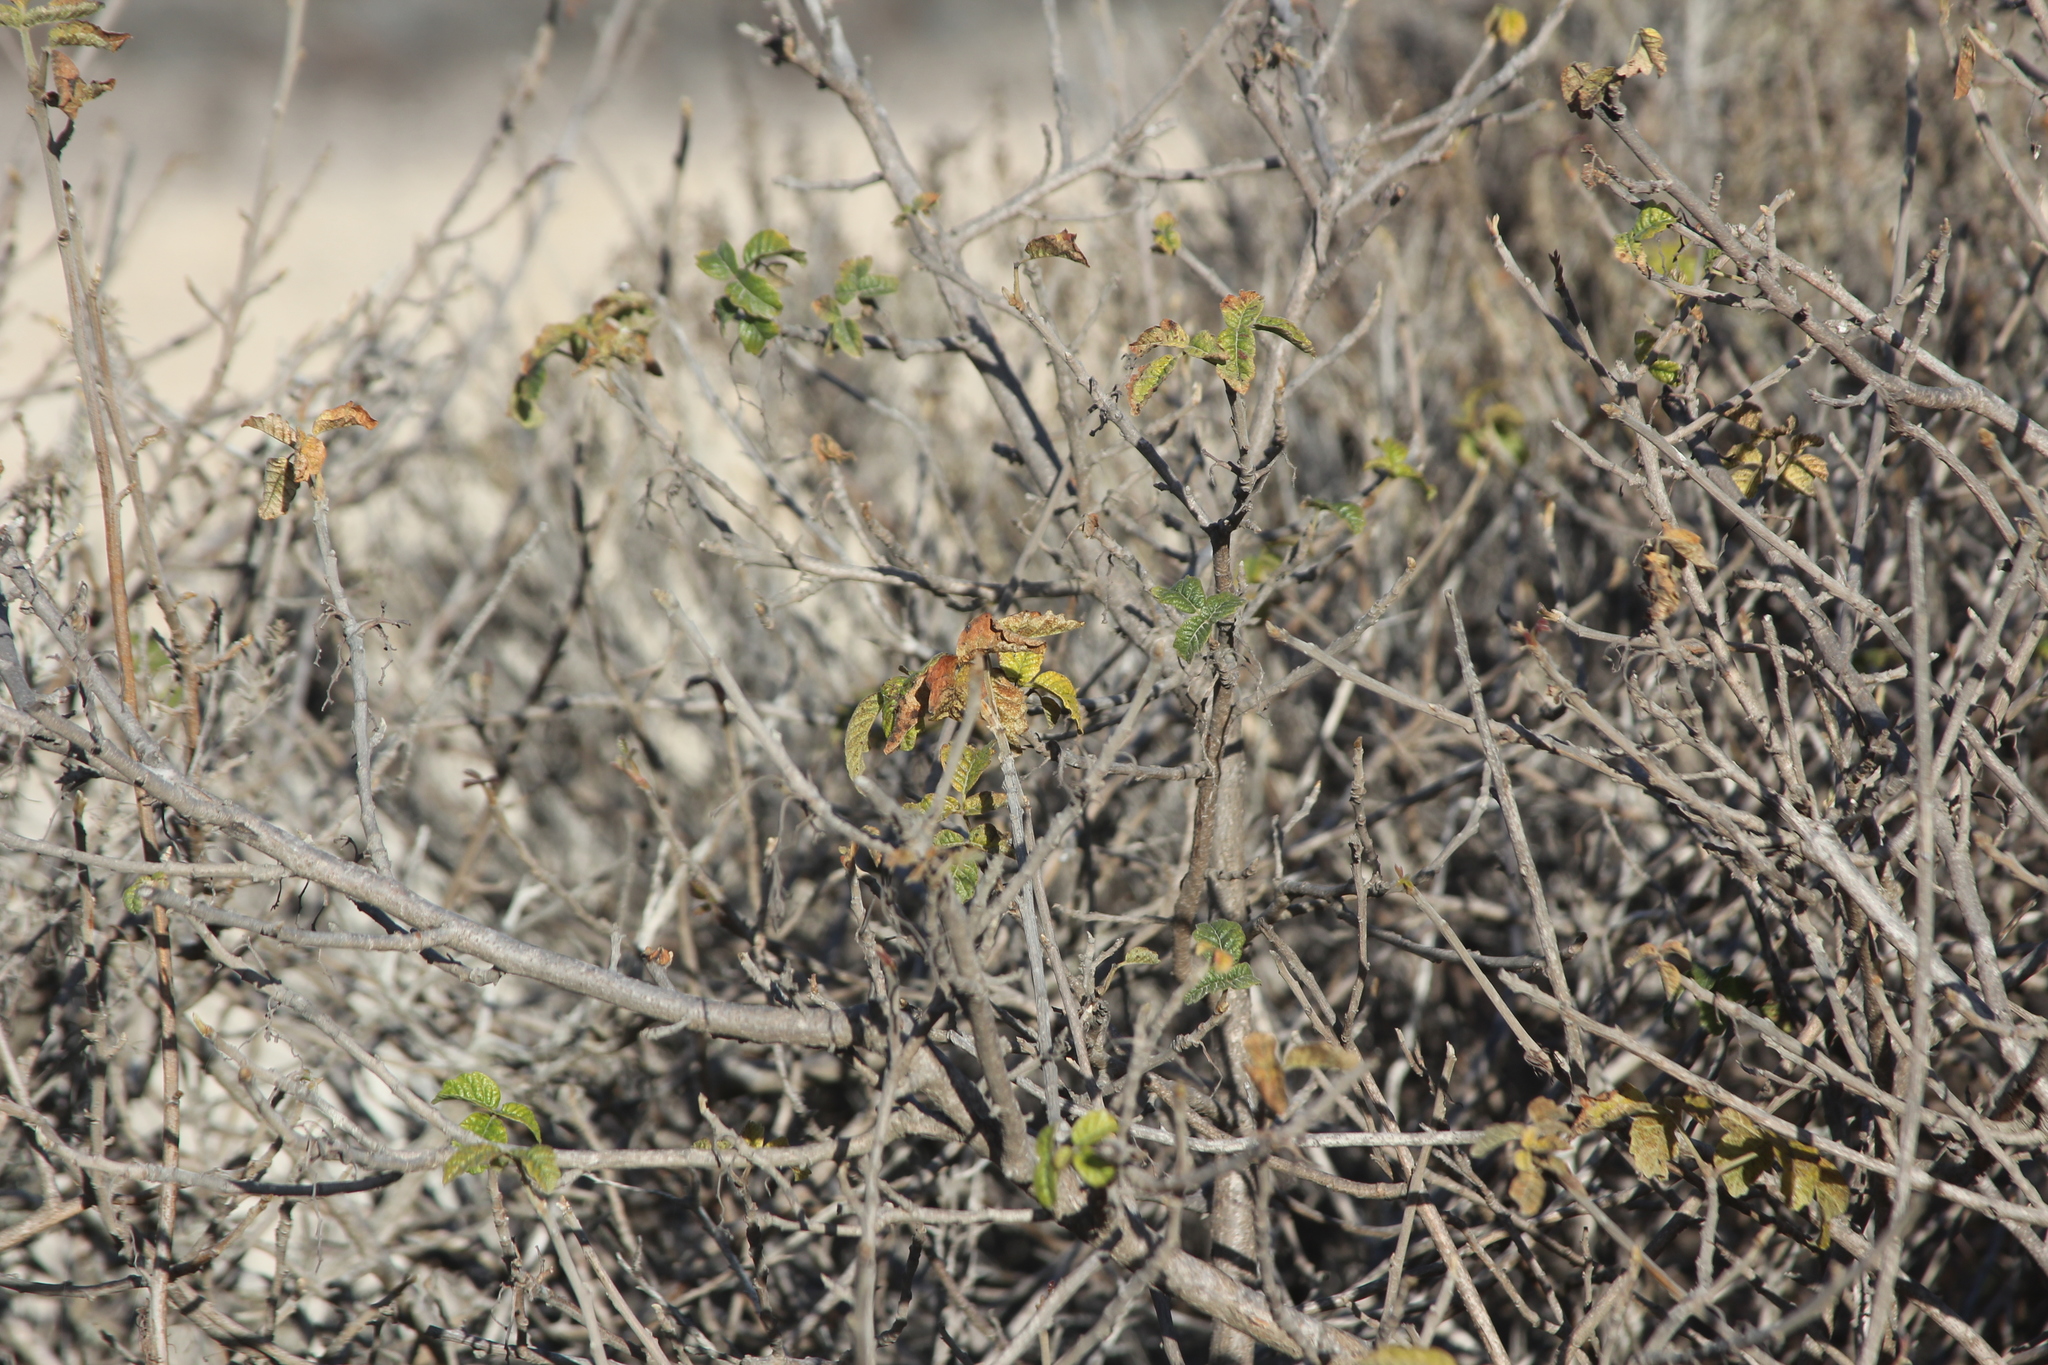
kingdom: Plantae
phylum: Tracheophyta
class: Magnoliopsida
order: Sapindales
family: Anacardiaceae
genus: Toxicodendron
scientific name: Toxicodendron diversilobum
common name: Pacific poison-oak
